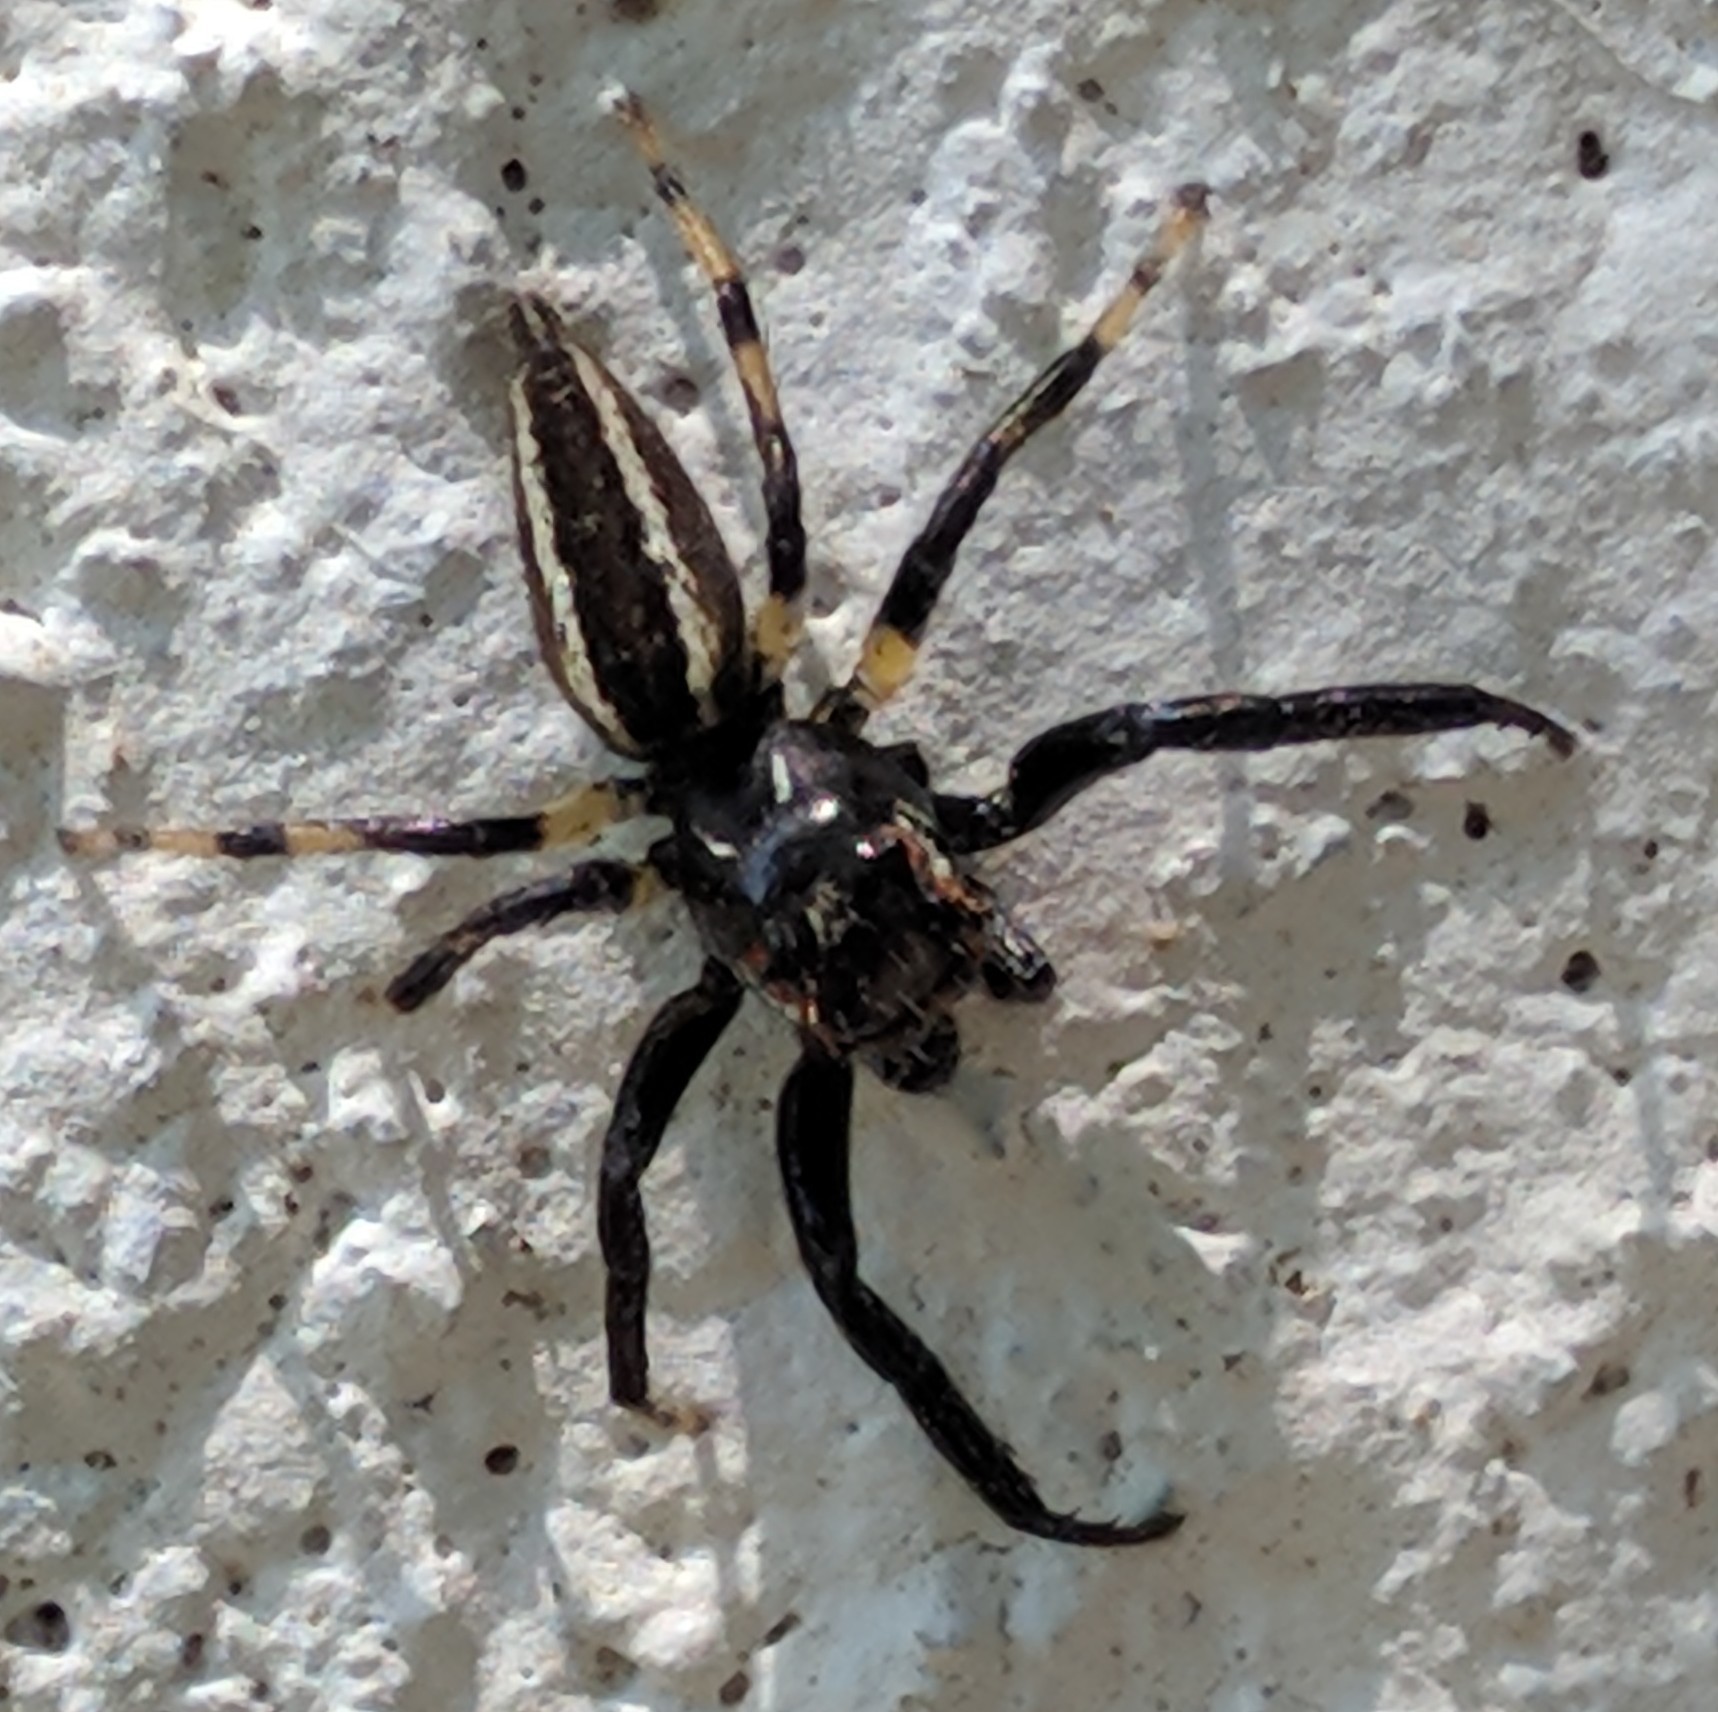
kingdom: Animalia
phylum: Arthropoda
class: Arachnida
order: Araneae
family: Salticidae
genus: Colonus
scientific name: Colonus sylvanus
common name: Jumping spiders
